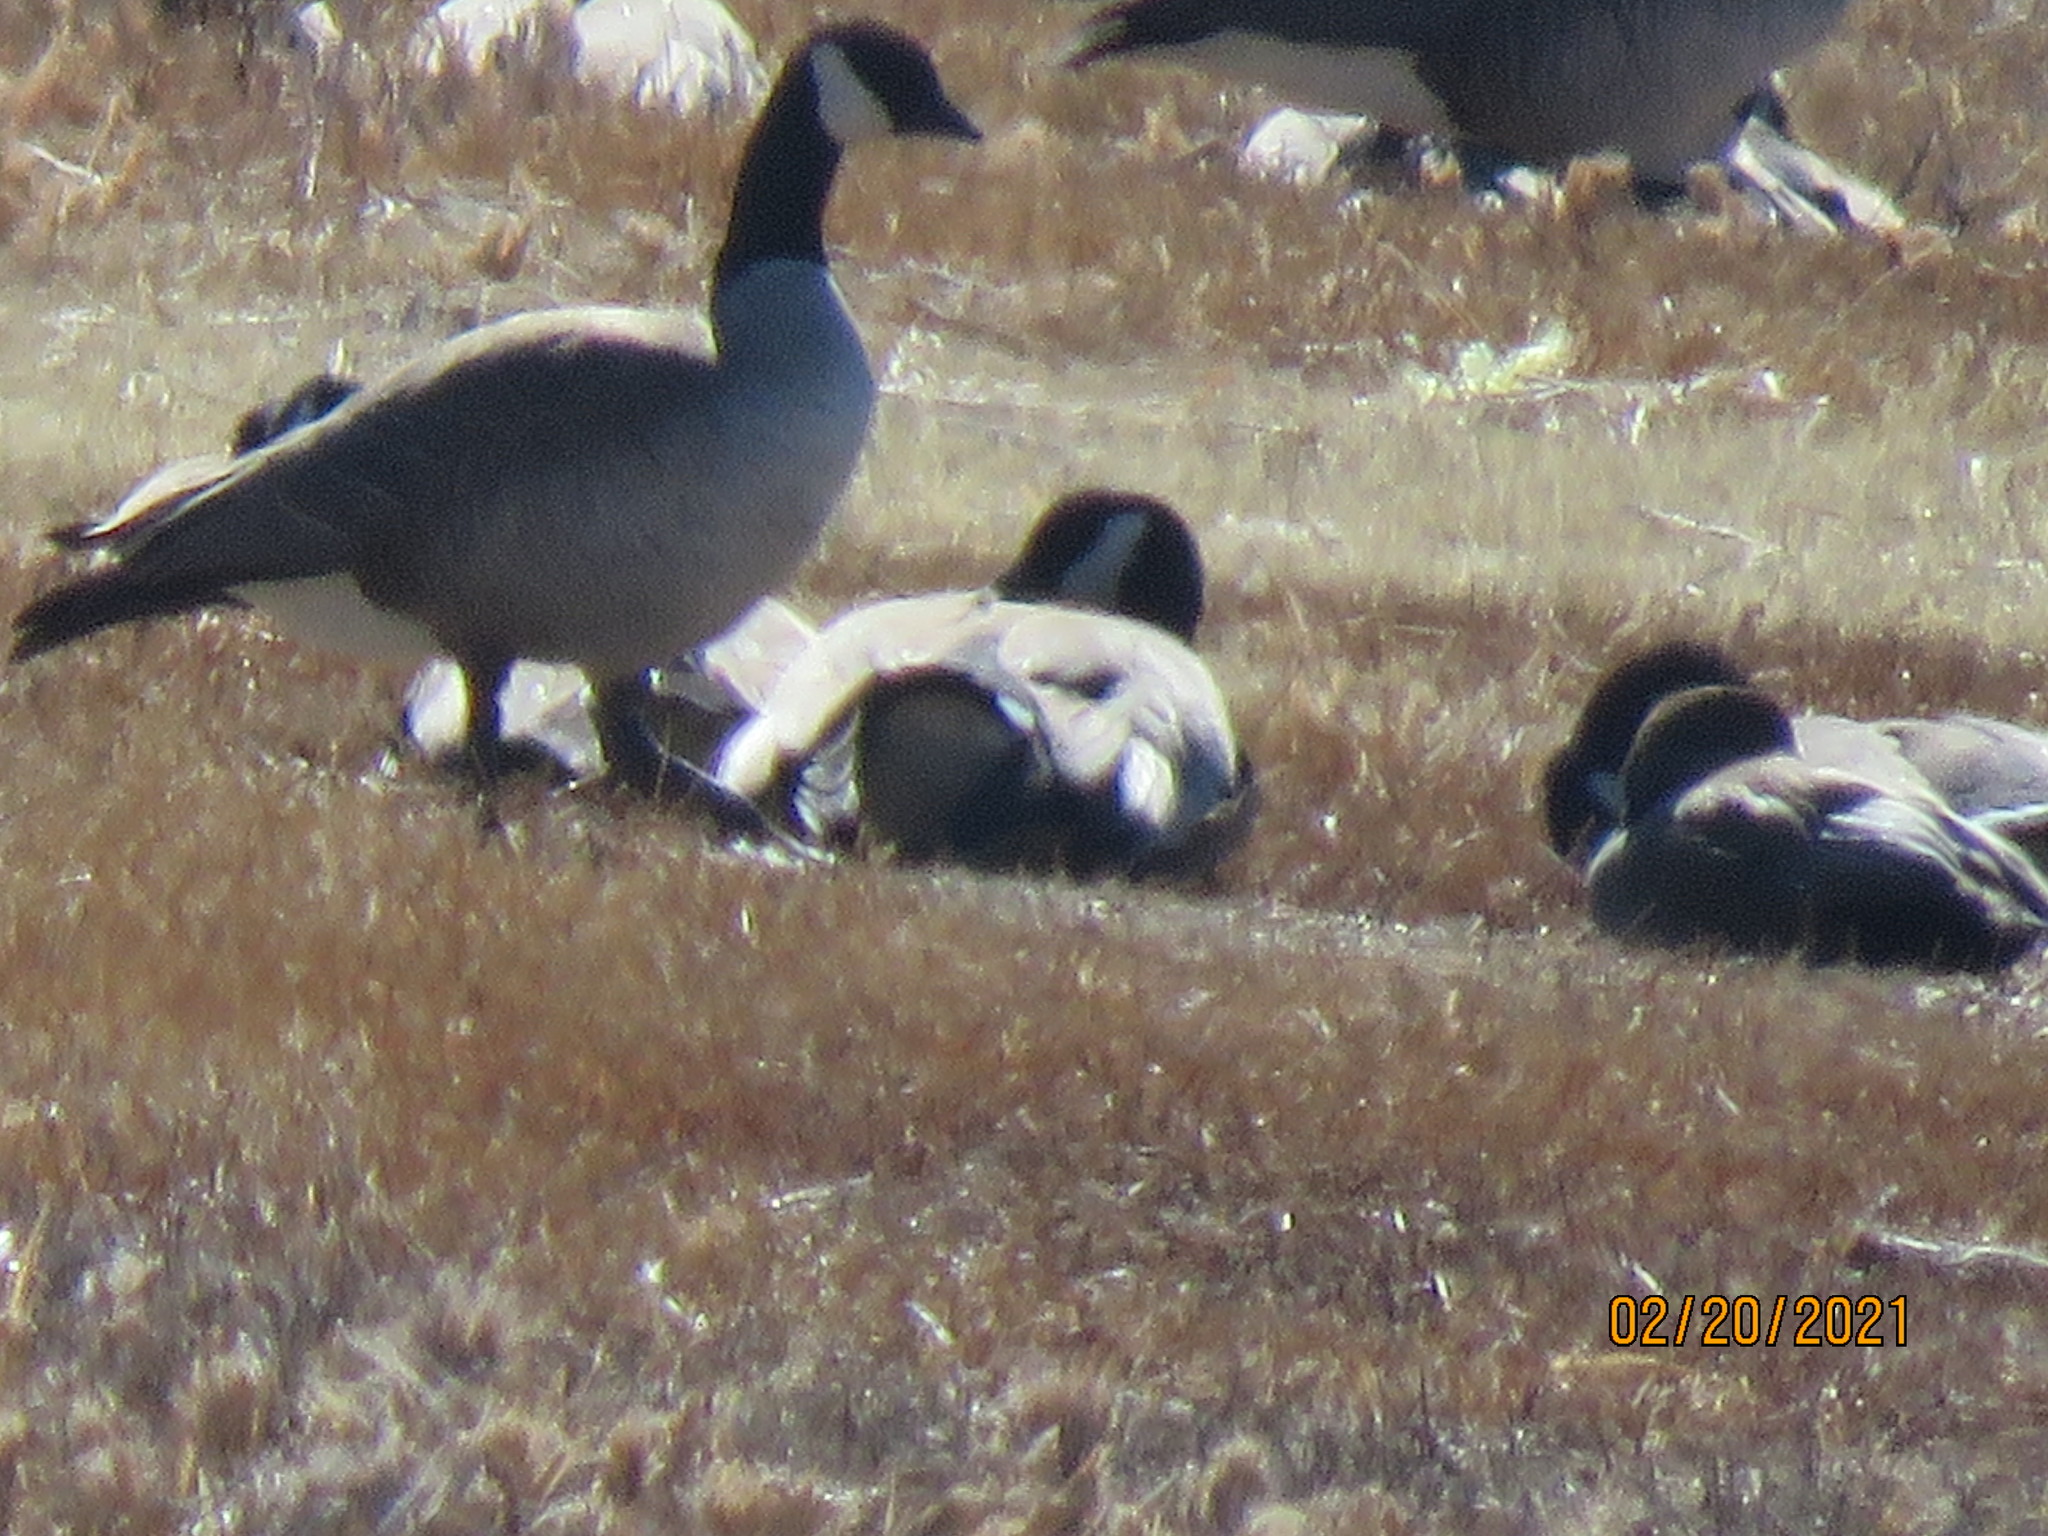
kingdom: Animalia
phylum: Chordata
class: Aves
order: Anseriformes
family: Anatidae
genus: Branta
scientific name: Branta hutchinsii
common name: Cackling goose
